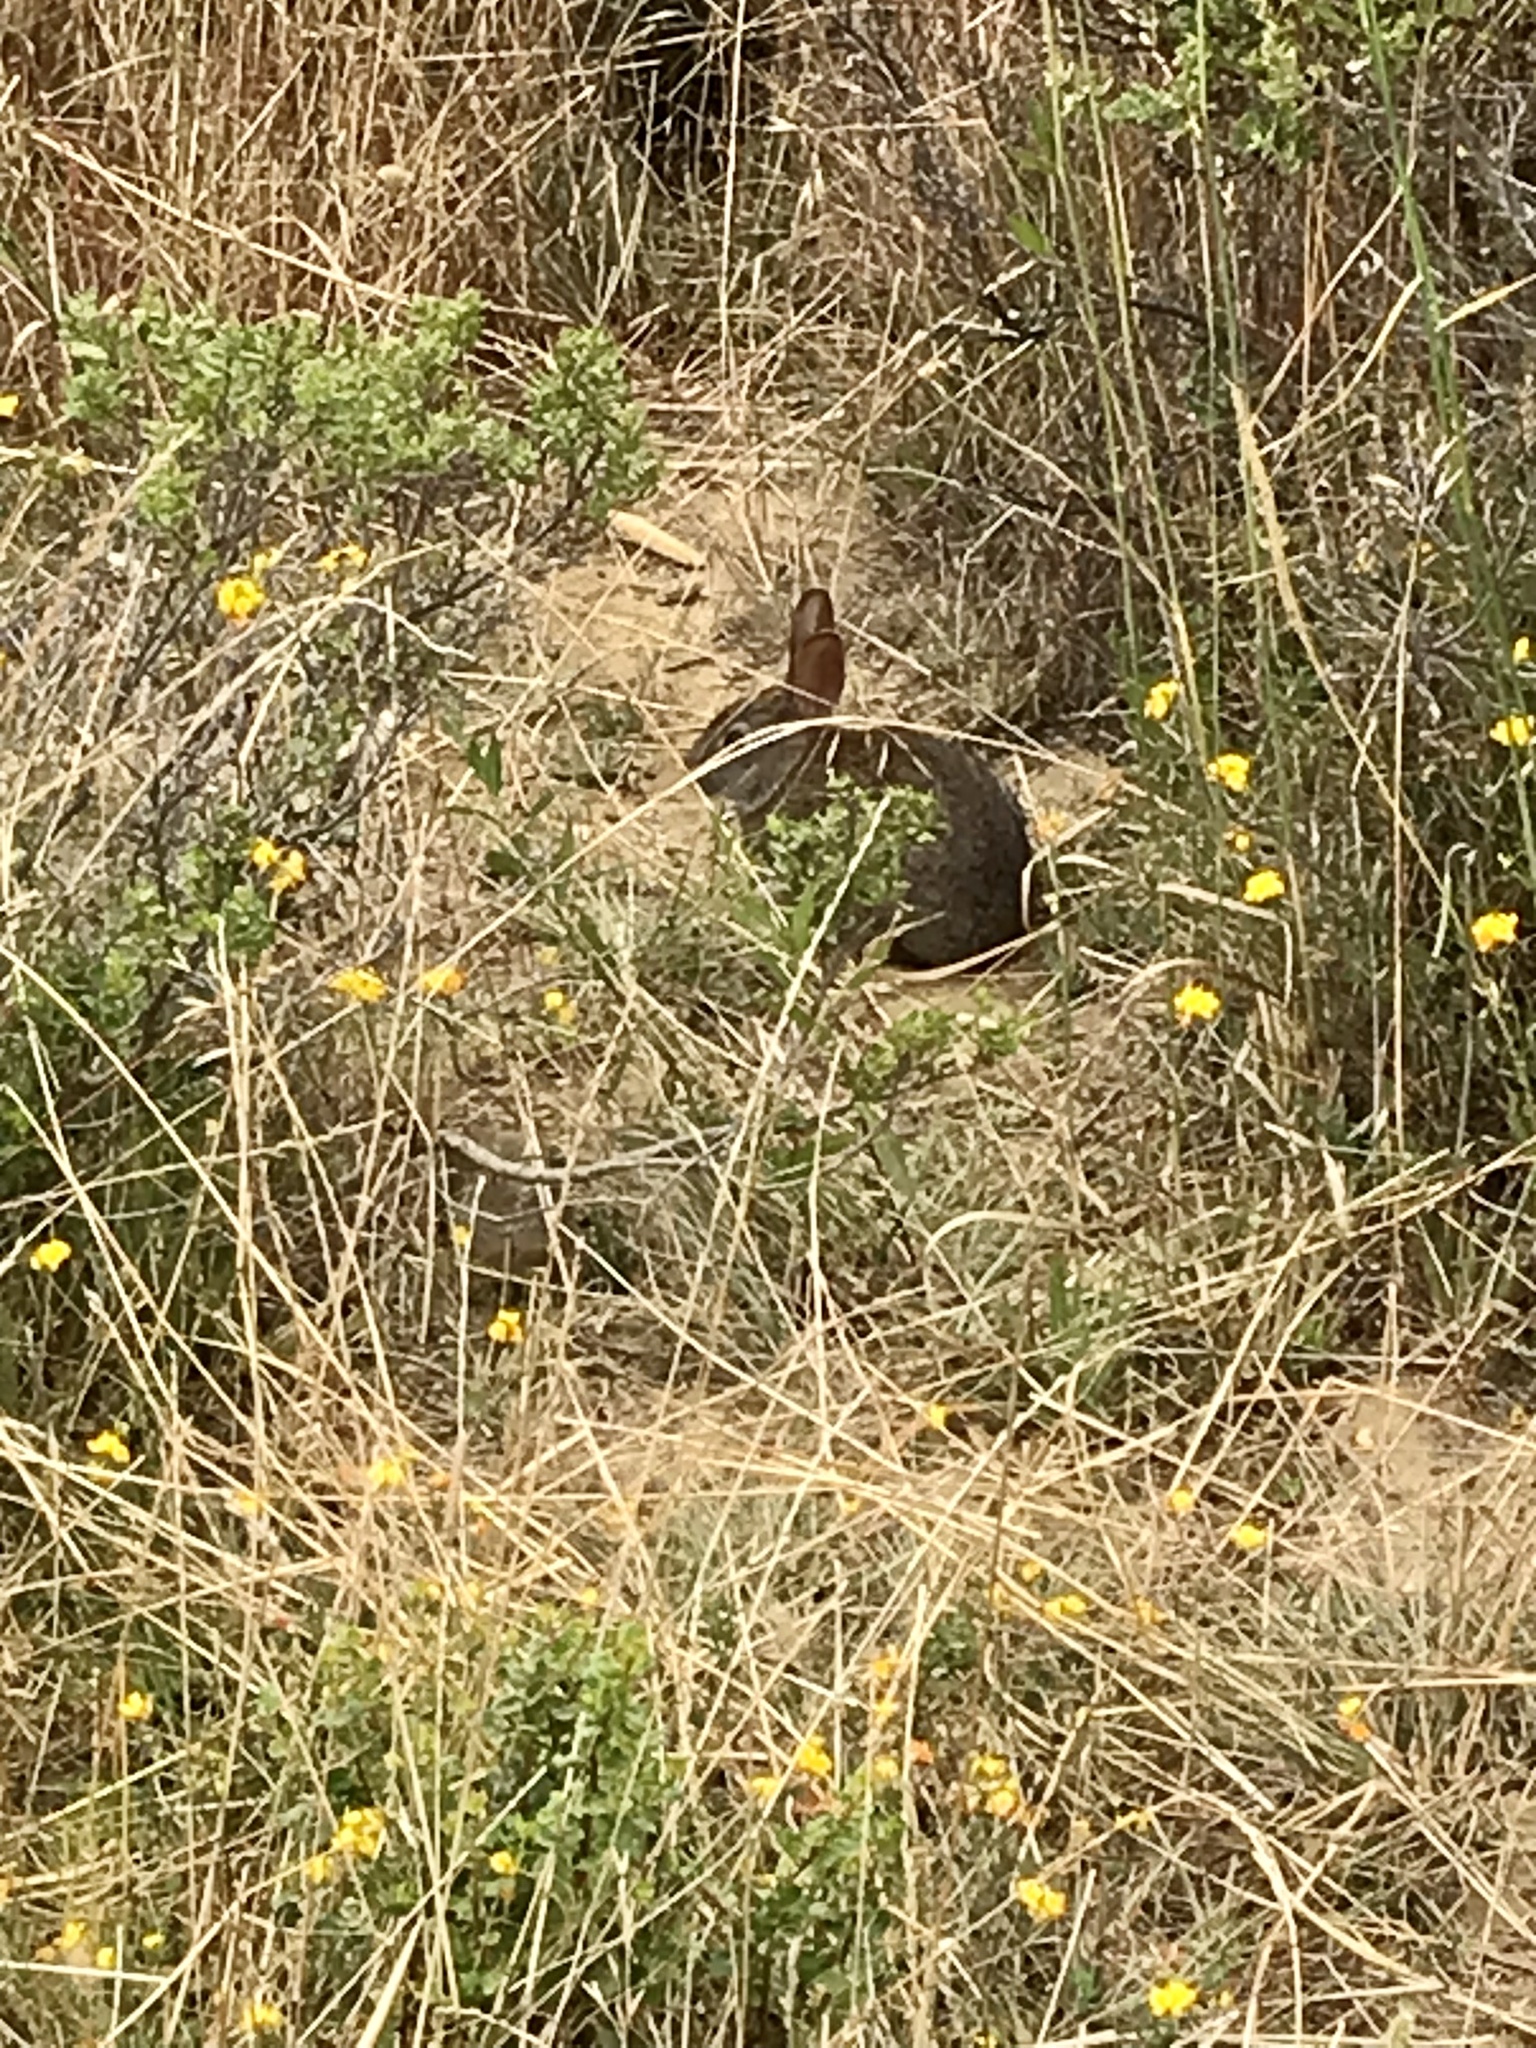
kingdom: Animalia
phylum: Chordata
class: Mammalia
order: Lagomorpha
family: Leporidae
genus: Sylvilagus
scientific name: Sylvilagus bachmani
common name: Brush rabbit
